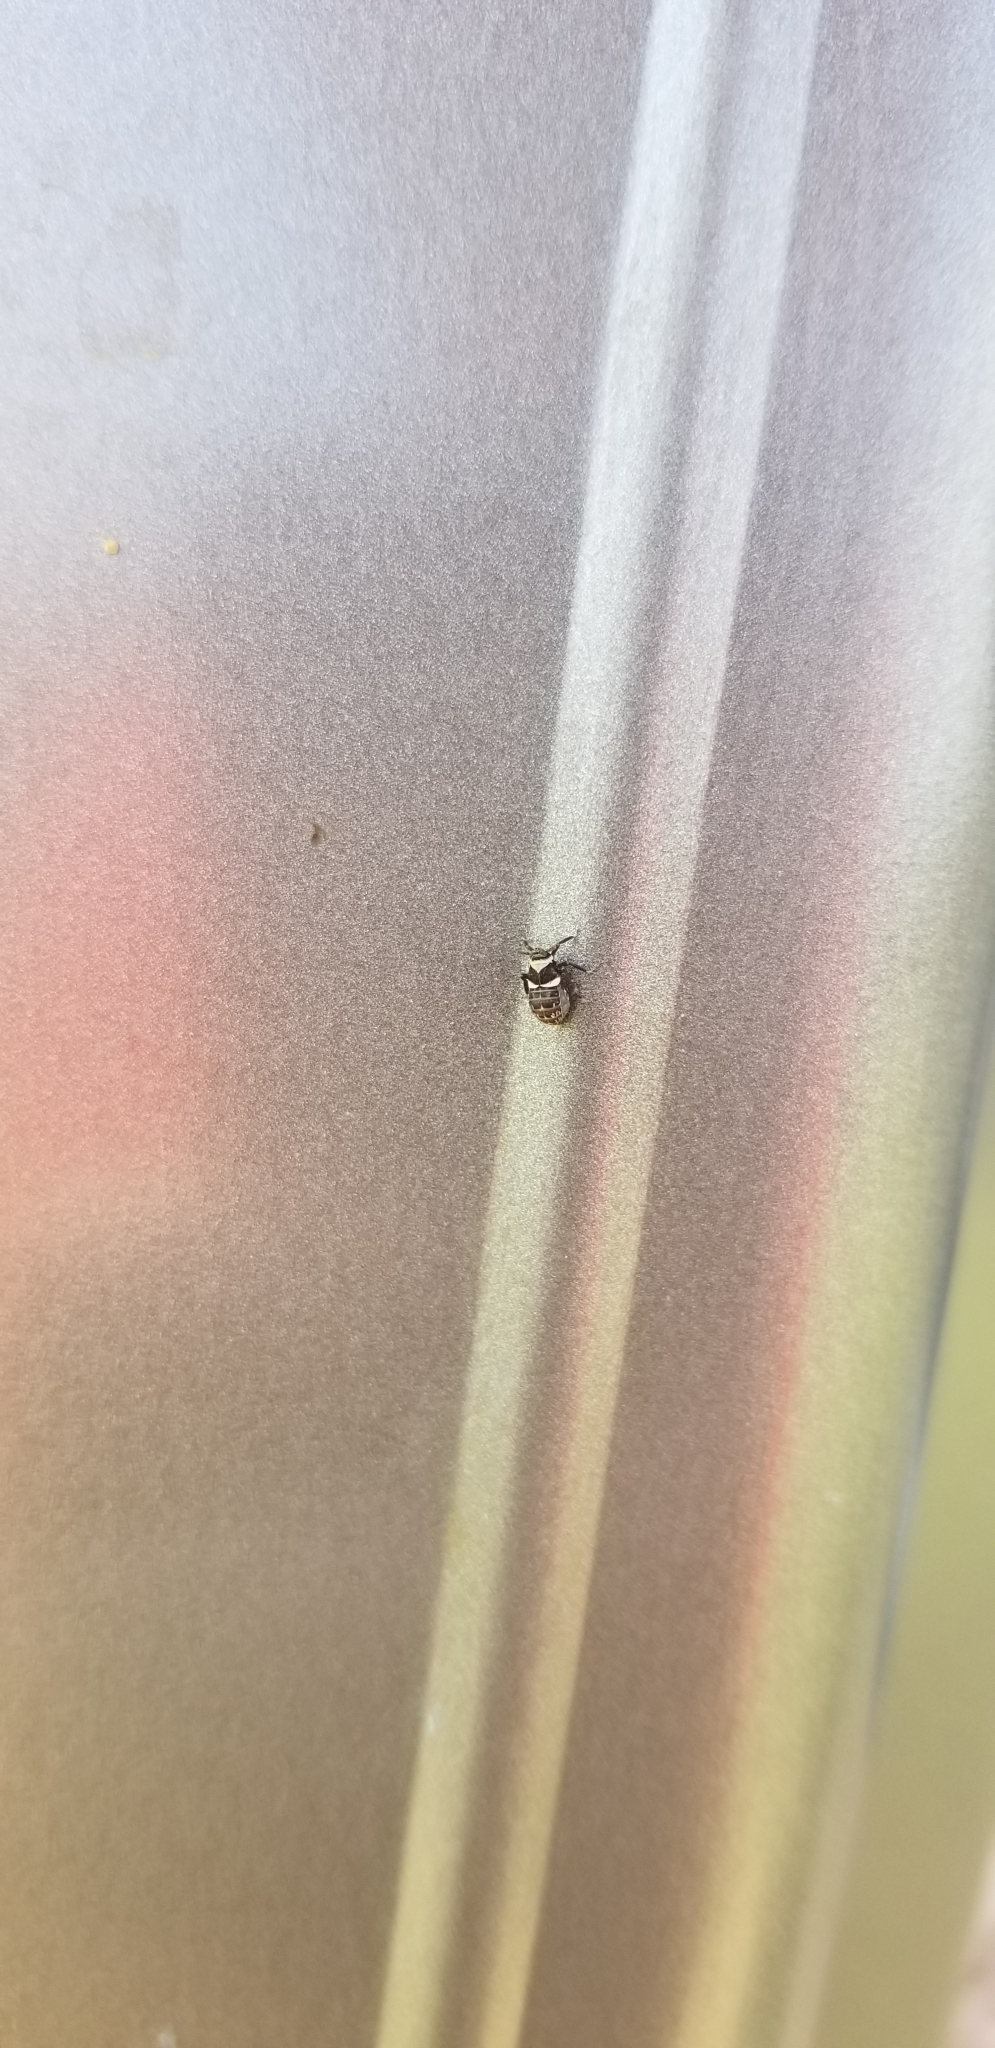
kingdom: Animalia
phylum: Arthropoda
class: Insecta
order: Hemiptera
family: Delphacidae
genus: Pissonotus
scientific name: Pissonotus flabellatus
